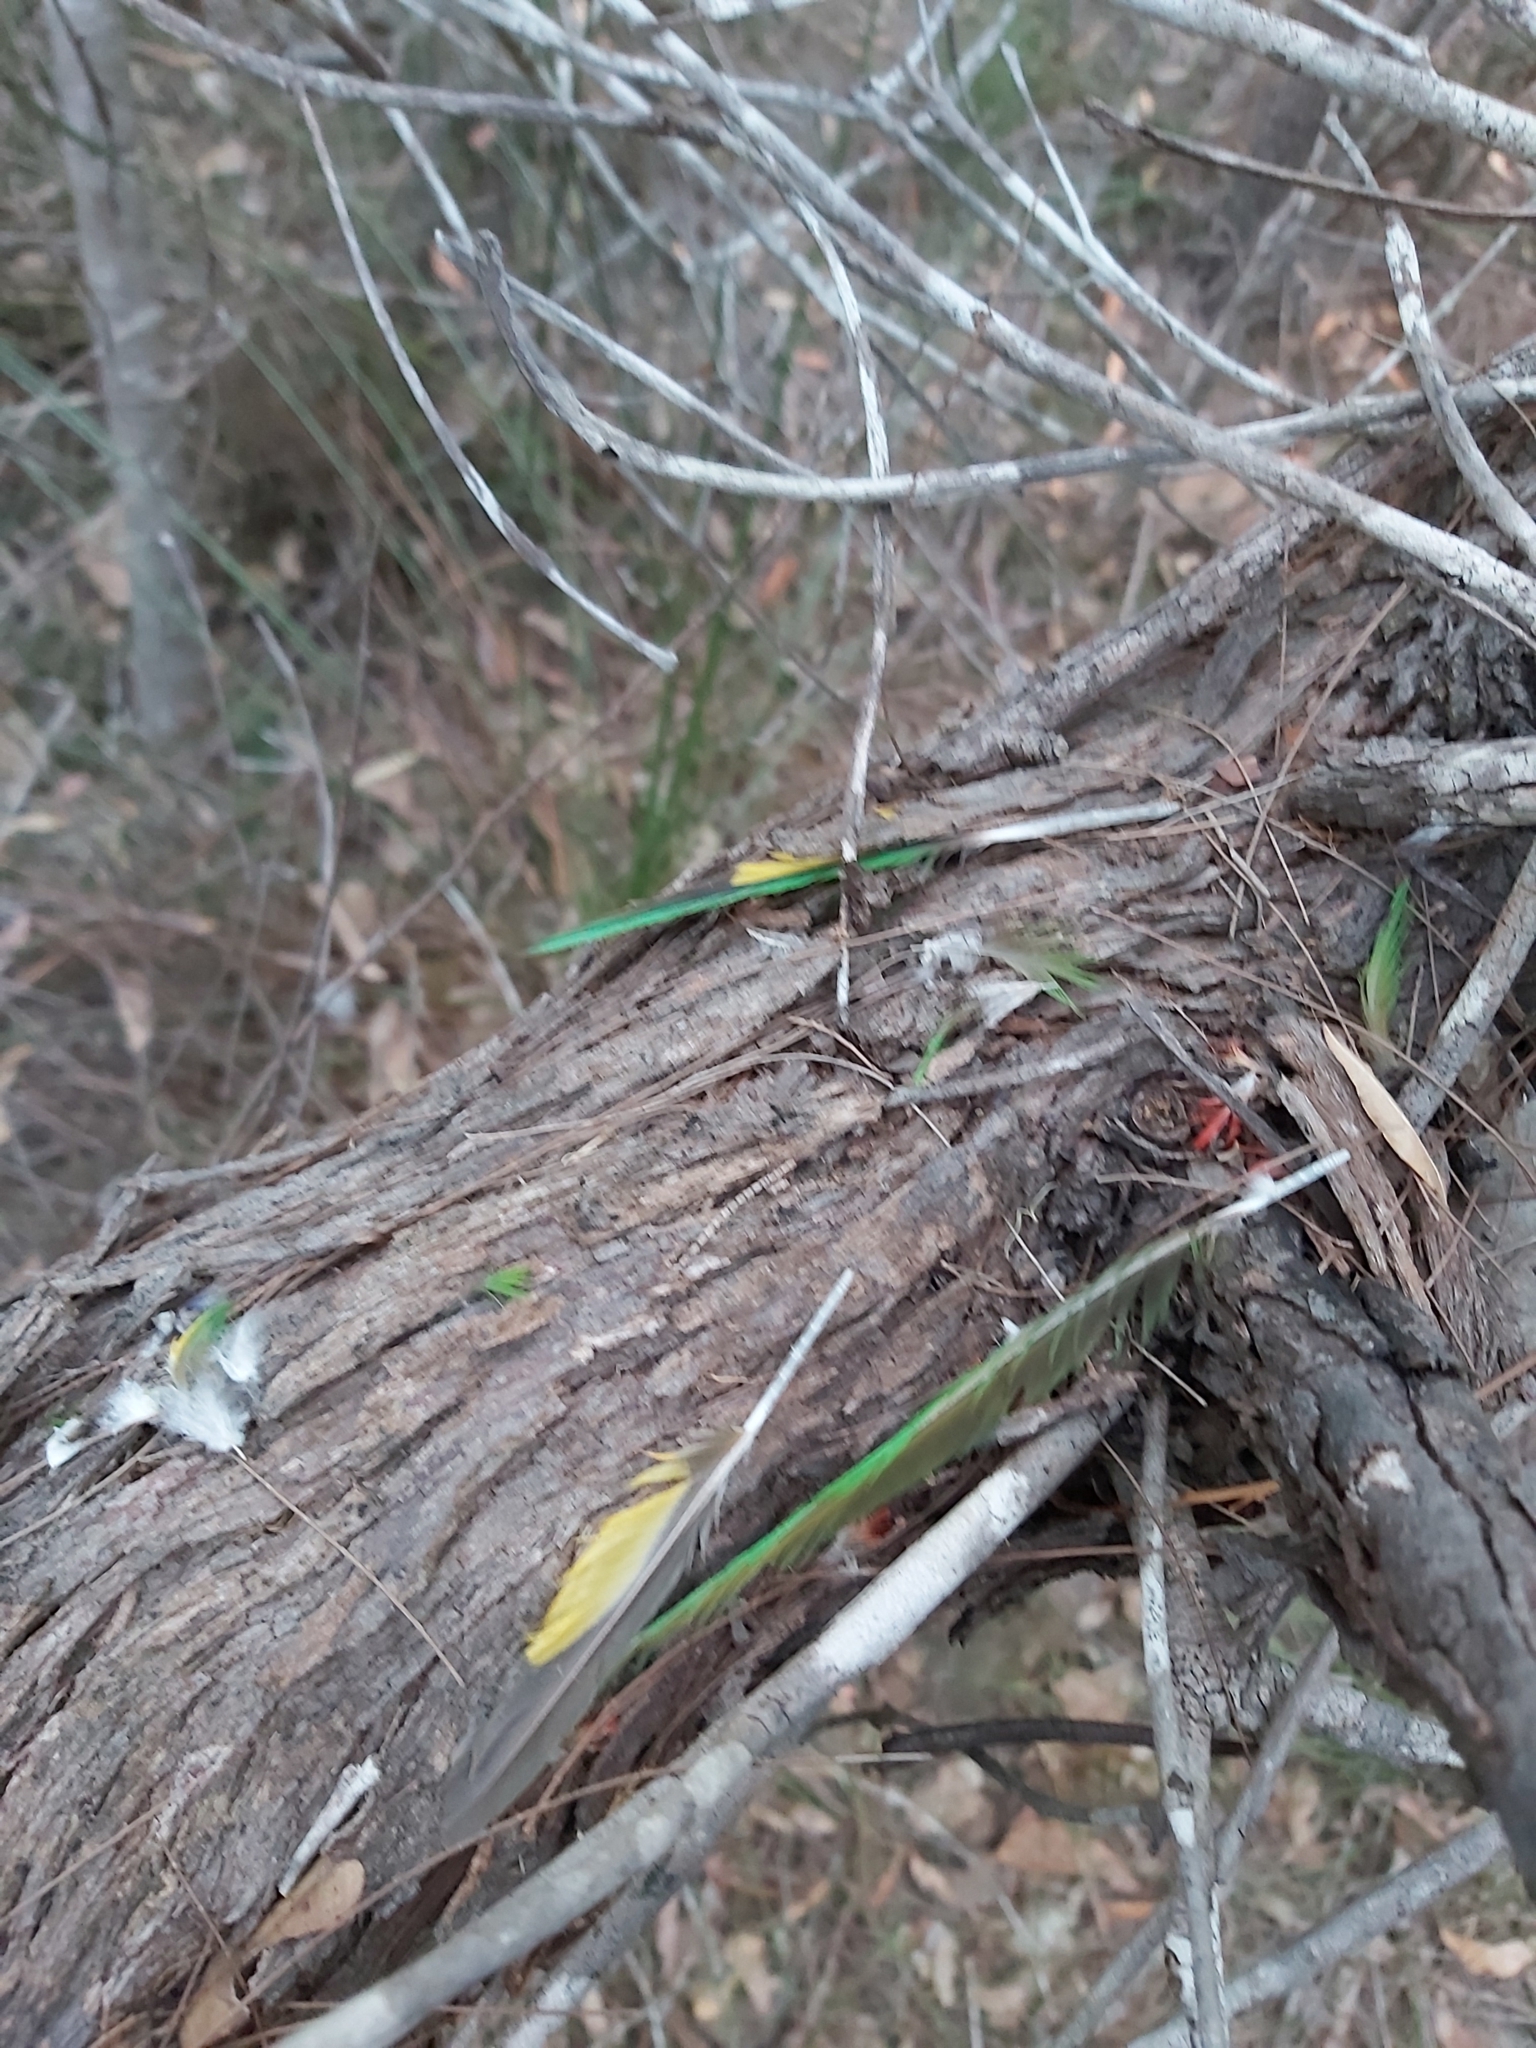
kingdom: Animalia
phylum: Chordata
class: Aves
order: Psittaciformes
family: Psittacidae
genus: Trichoglossus
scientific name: Trichoglossus haematodus
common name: Coconut lorikeet
